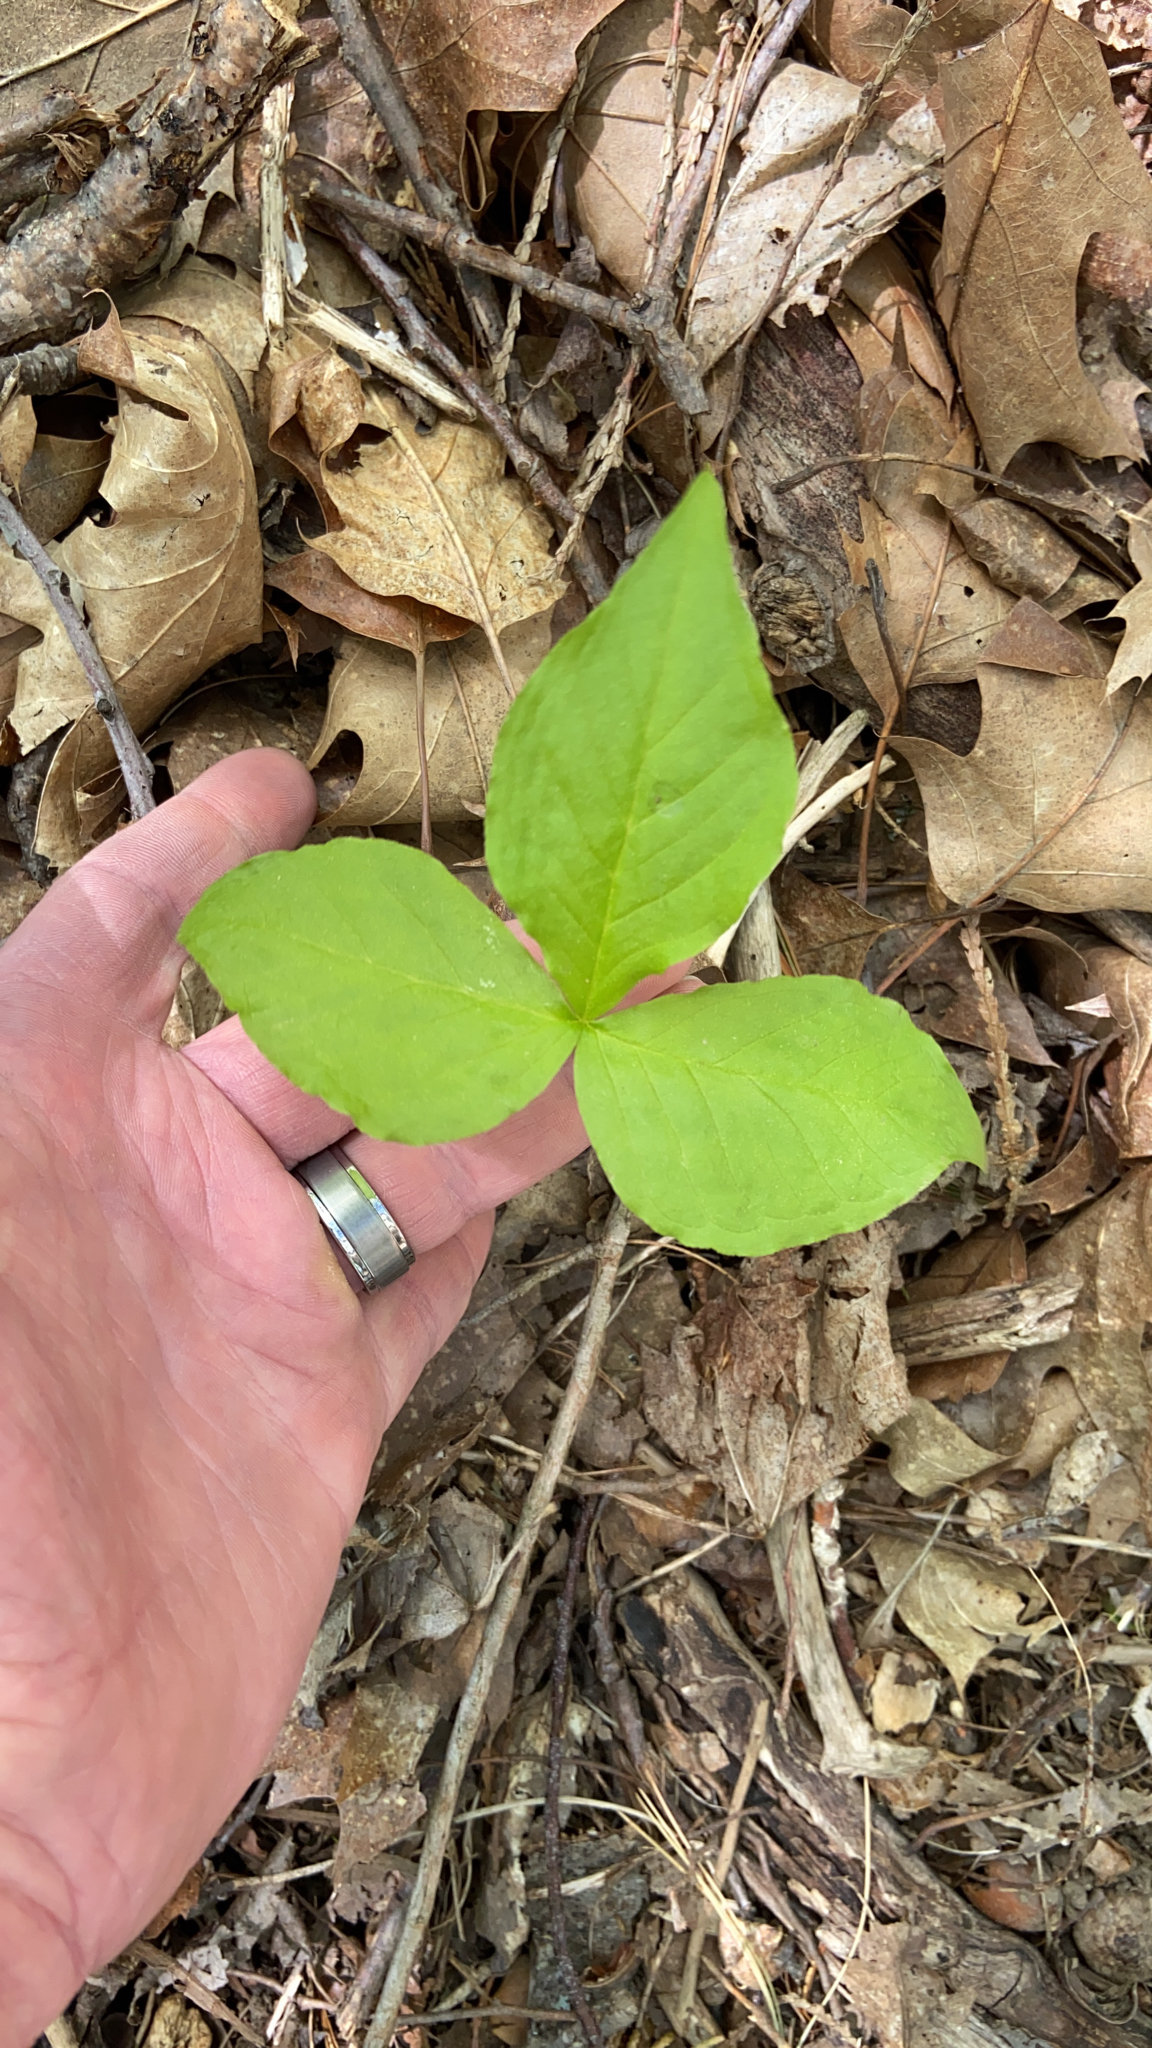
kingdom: Plantae
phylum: Tracheophyta
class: Liliopsida
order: Alismatales
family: Araceae
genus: Arisaema
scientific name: Arisaema triphyllum
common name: Jack-in-the-pulpit
